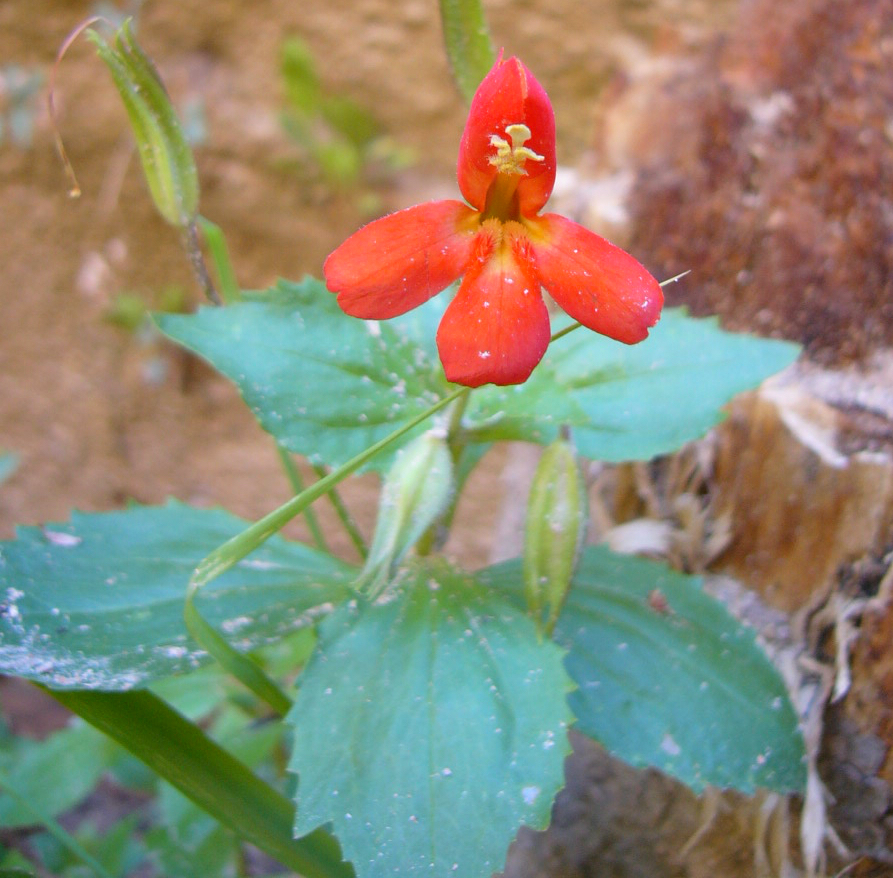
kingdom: Plantae
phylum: Tracheophyta
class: Magnoliopsida
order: Lamiales
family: Phrymaceae
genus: Erythranthe
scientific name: Erythranthe verbenacea
